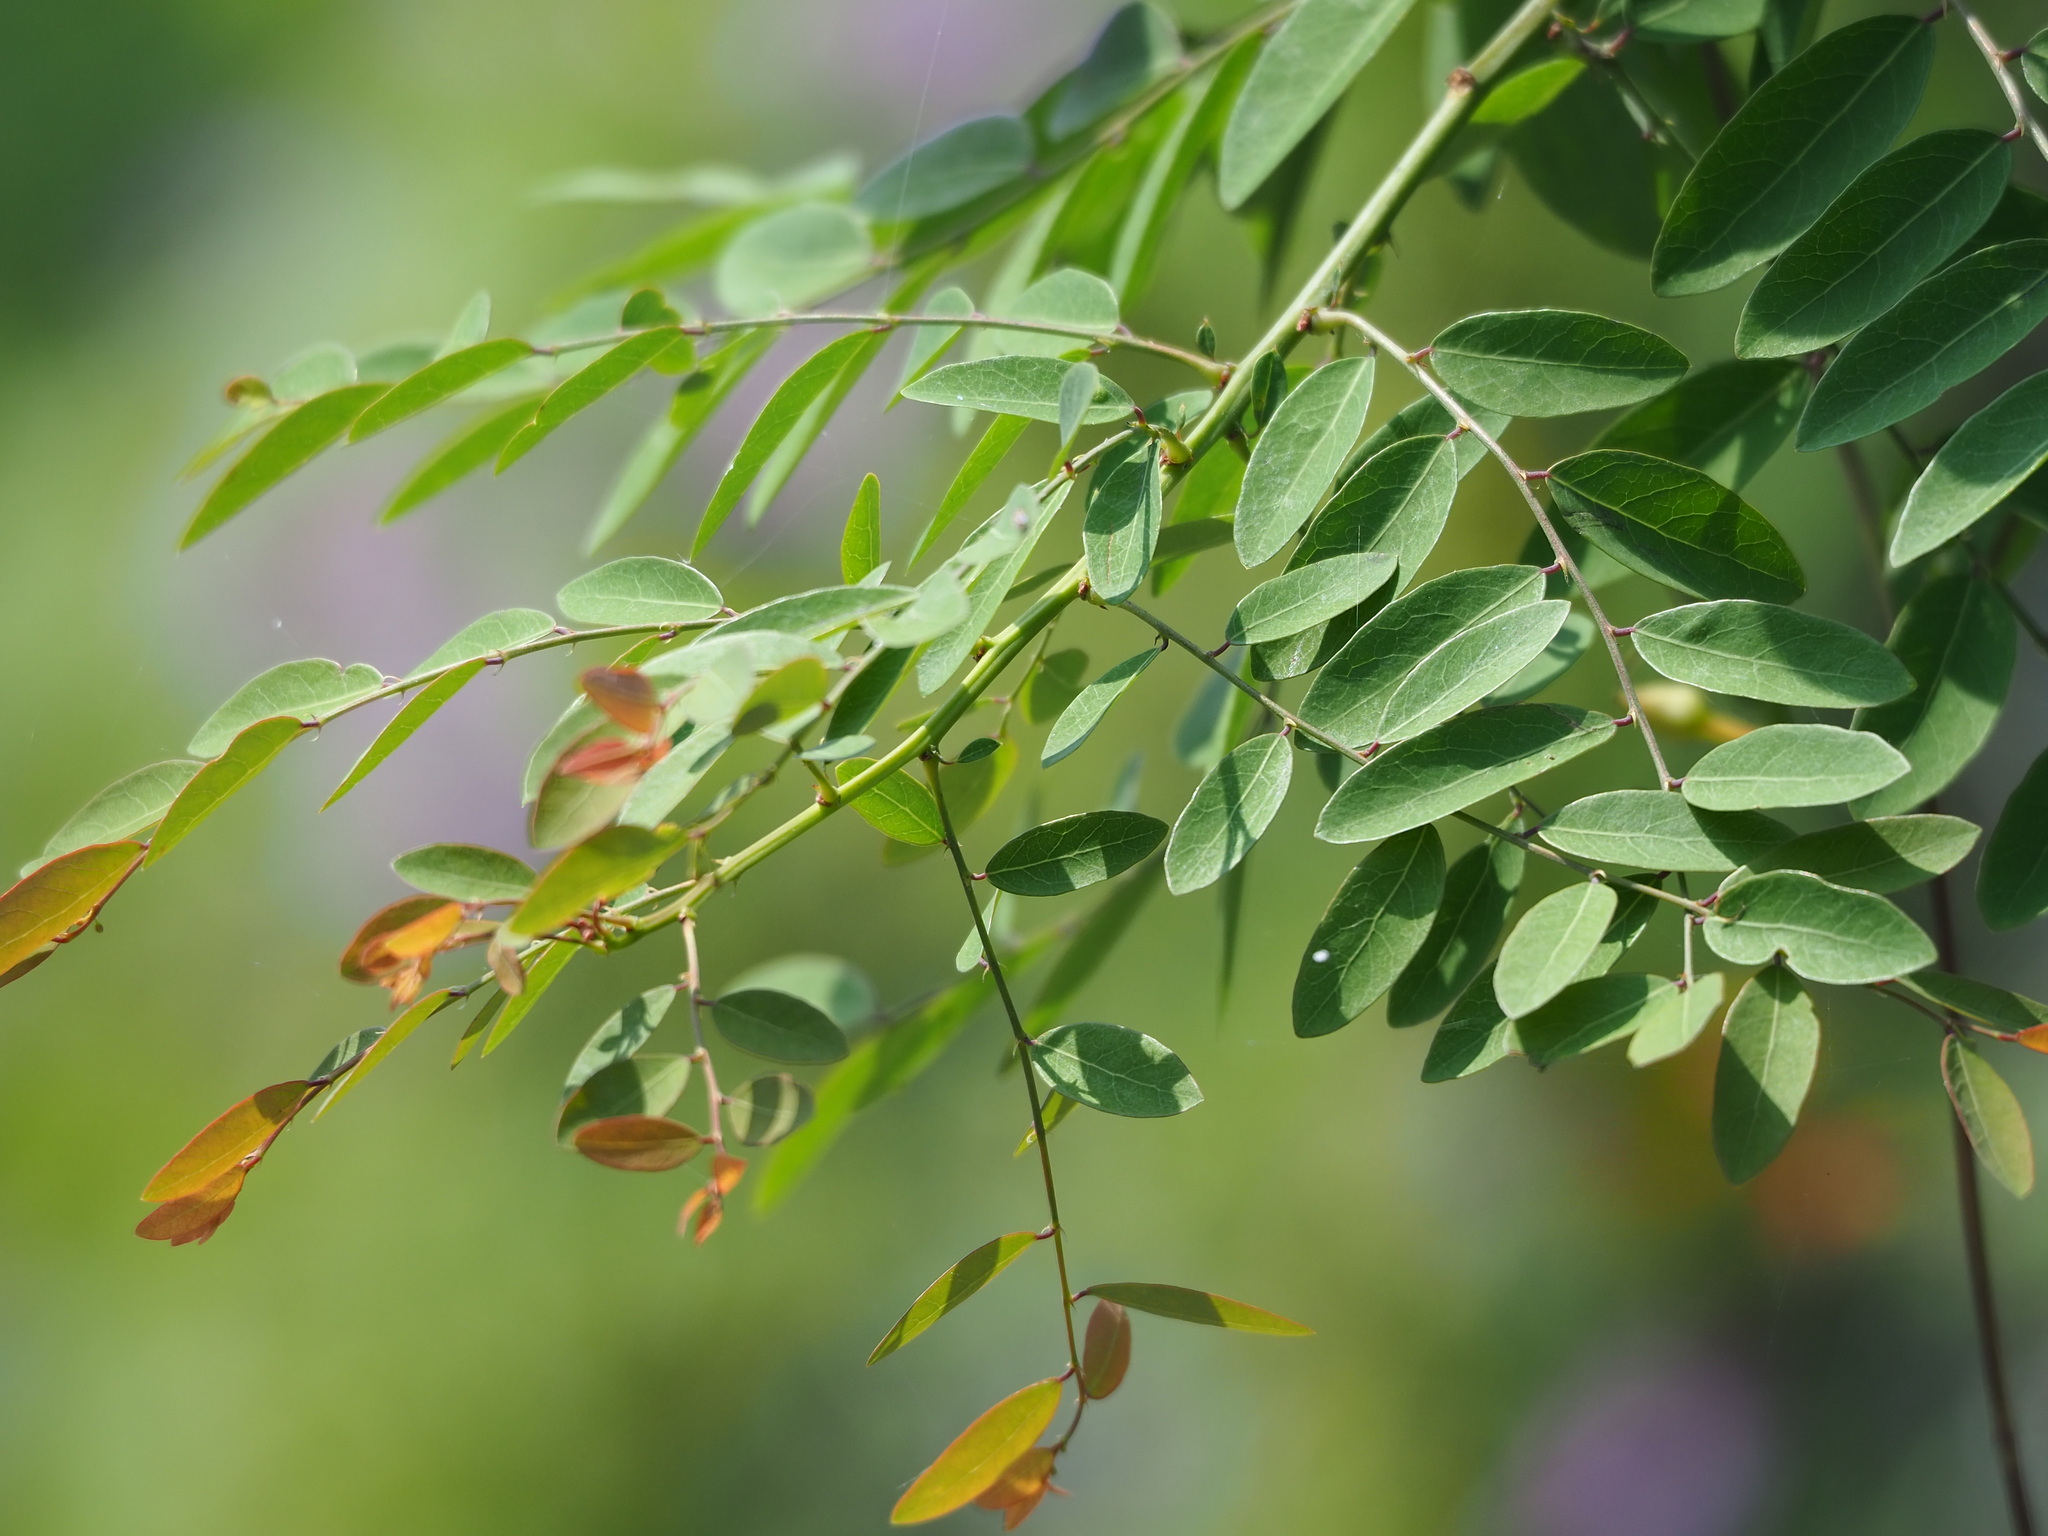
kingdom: Plantae
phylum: Tracheophyta
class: Magnoliopsida
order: Malpighiales
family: Phyllanthaceae
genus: Phyllanthus
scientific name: Phyllanthus reticulatus
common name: Potato bush
